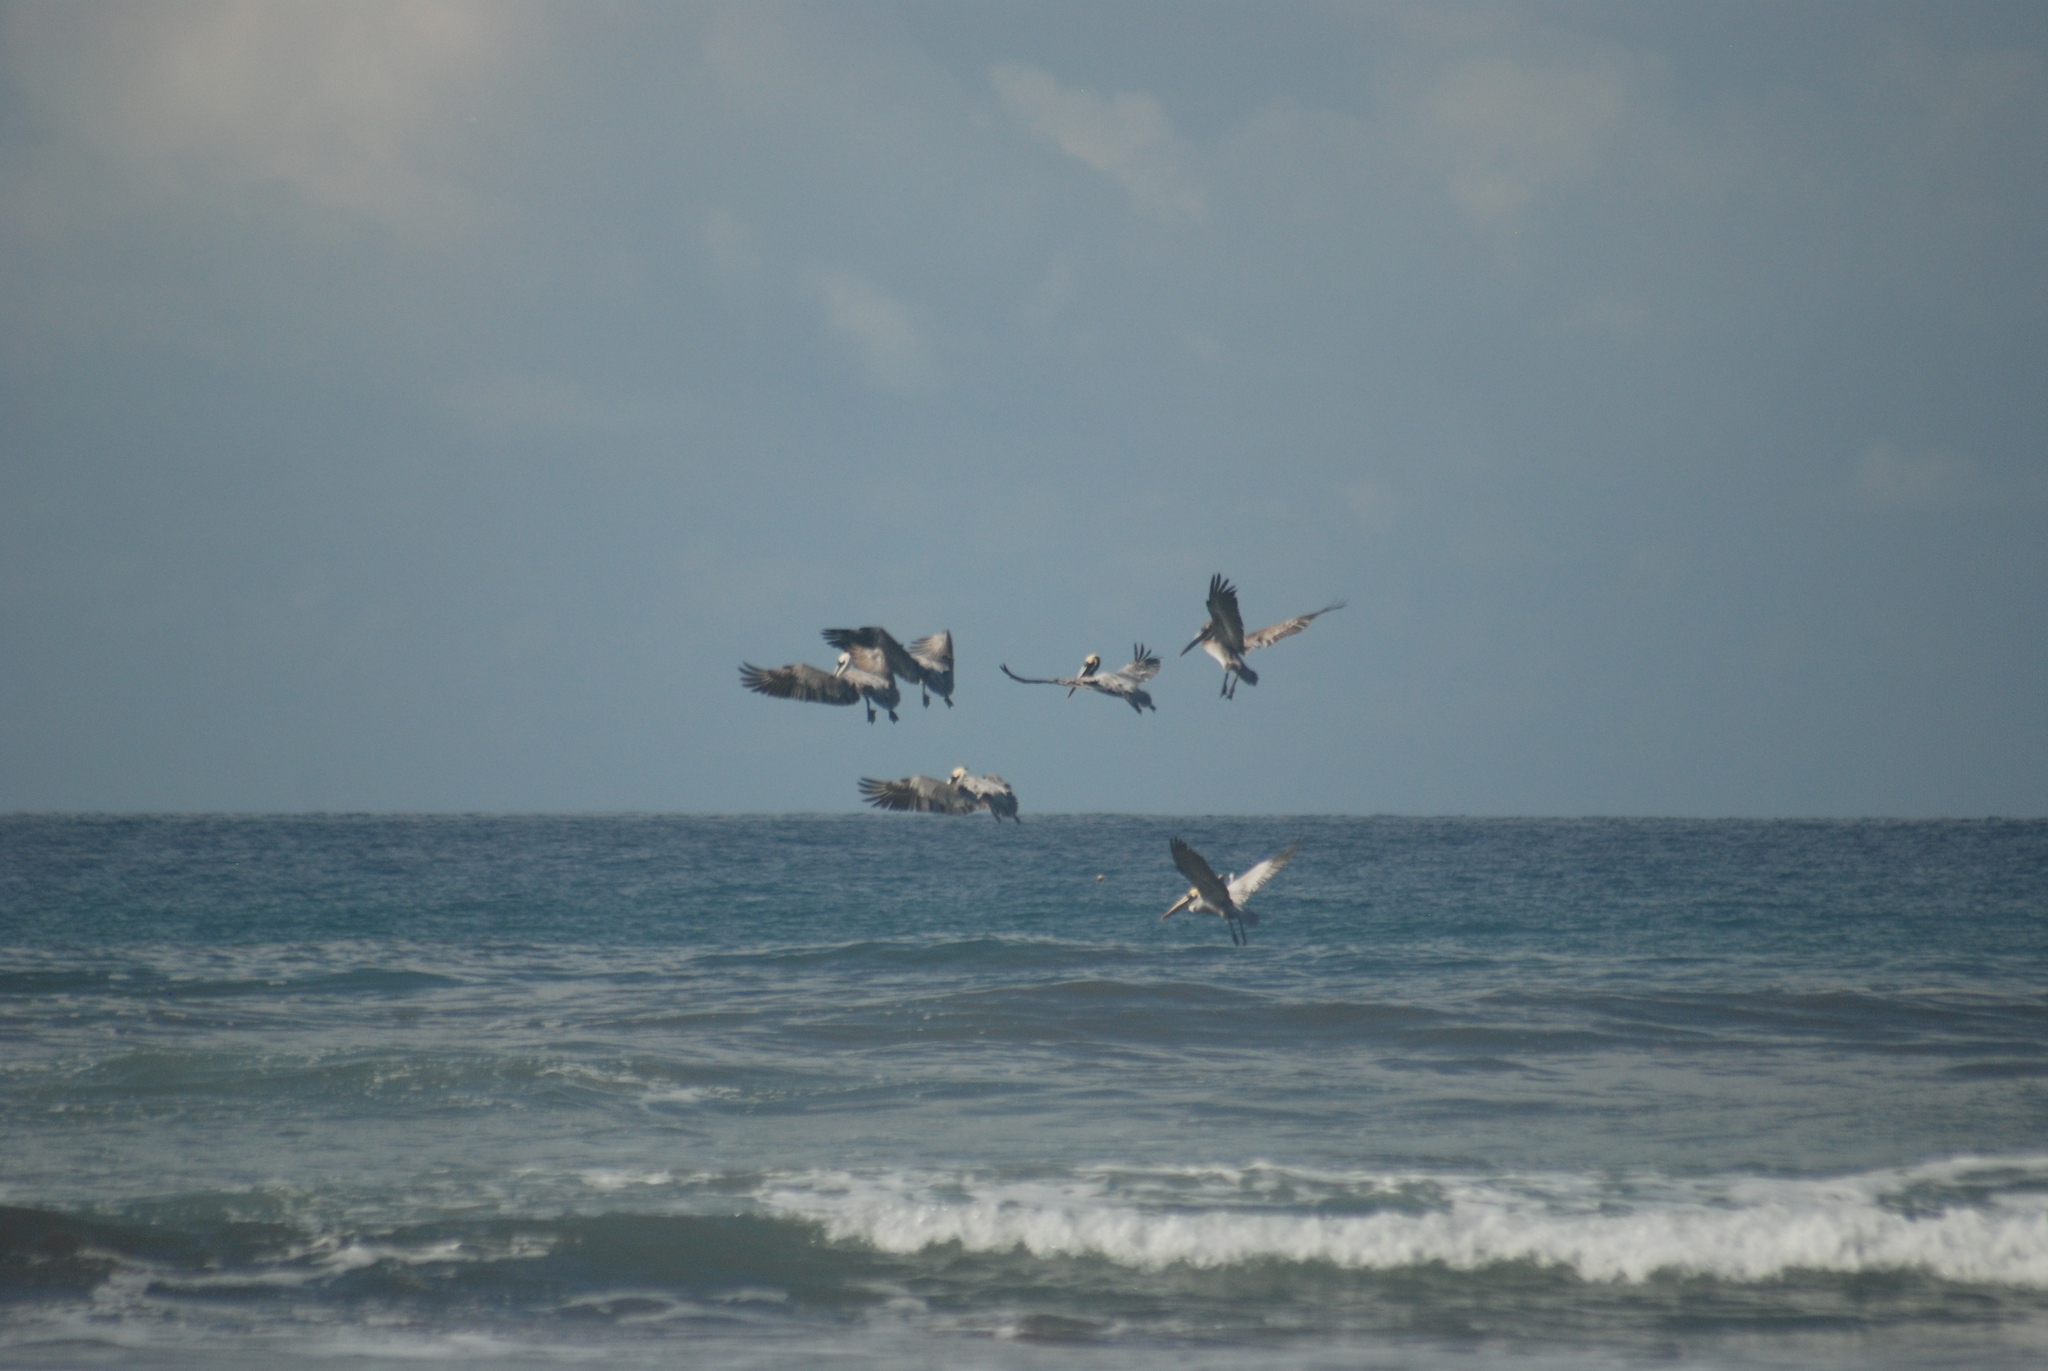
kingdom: Animalia
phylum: Chordata
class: Aves
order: Pelecaniformes
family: Pelecanidae
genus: Pelecanus
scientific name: Pelecanus occidentalis
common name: Brown pelican
